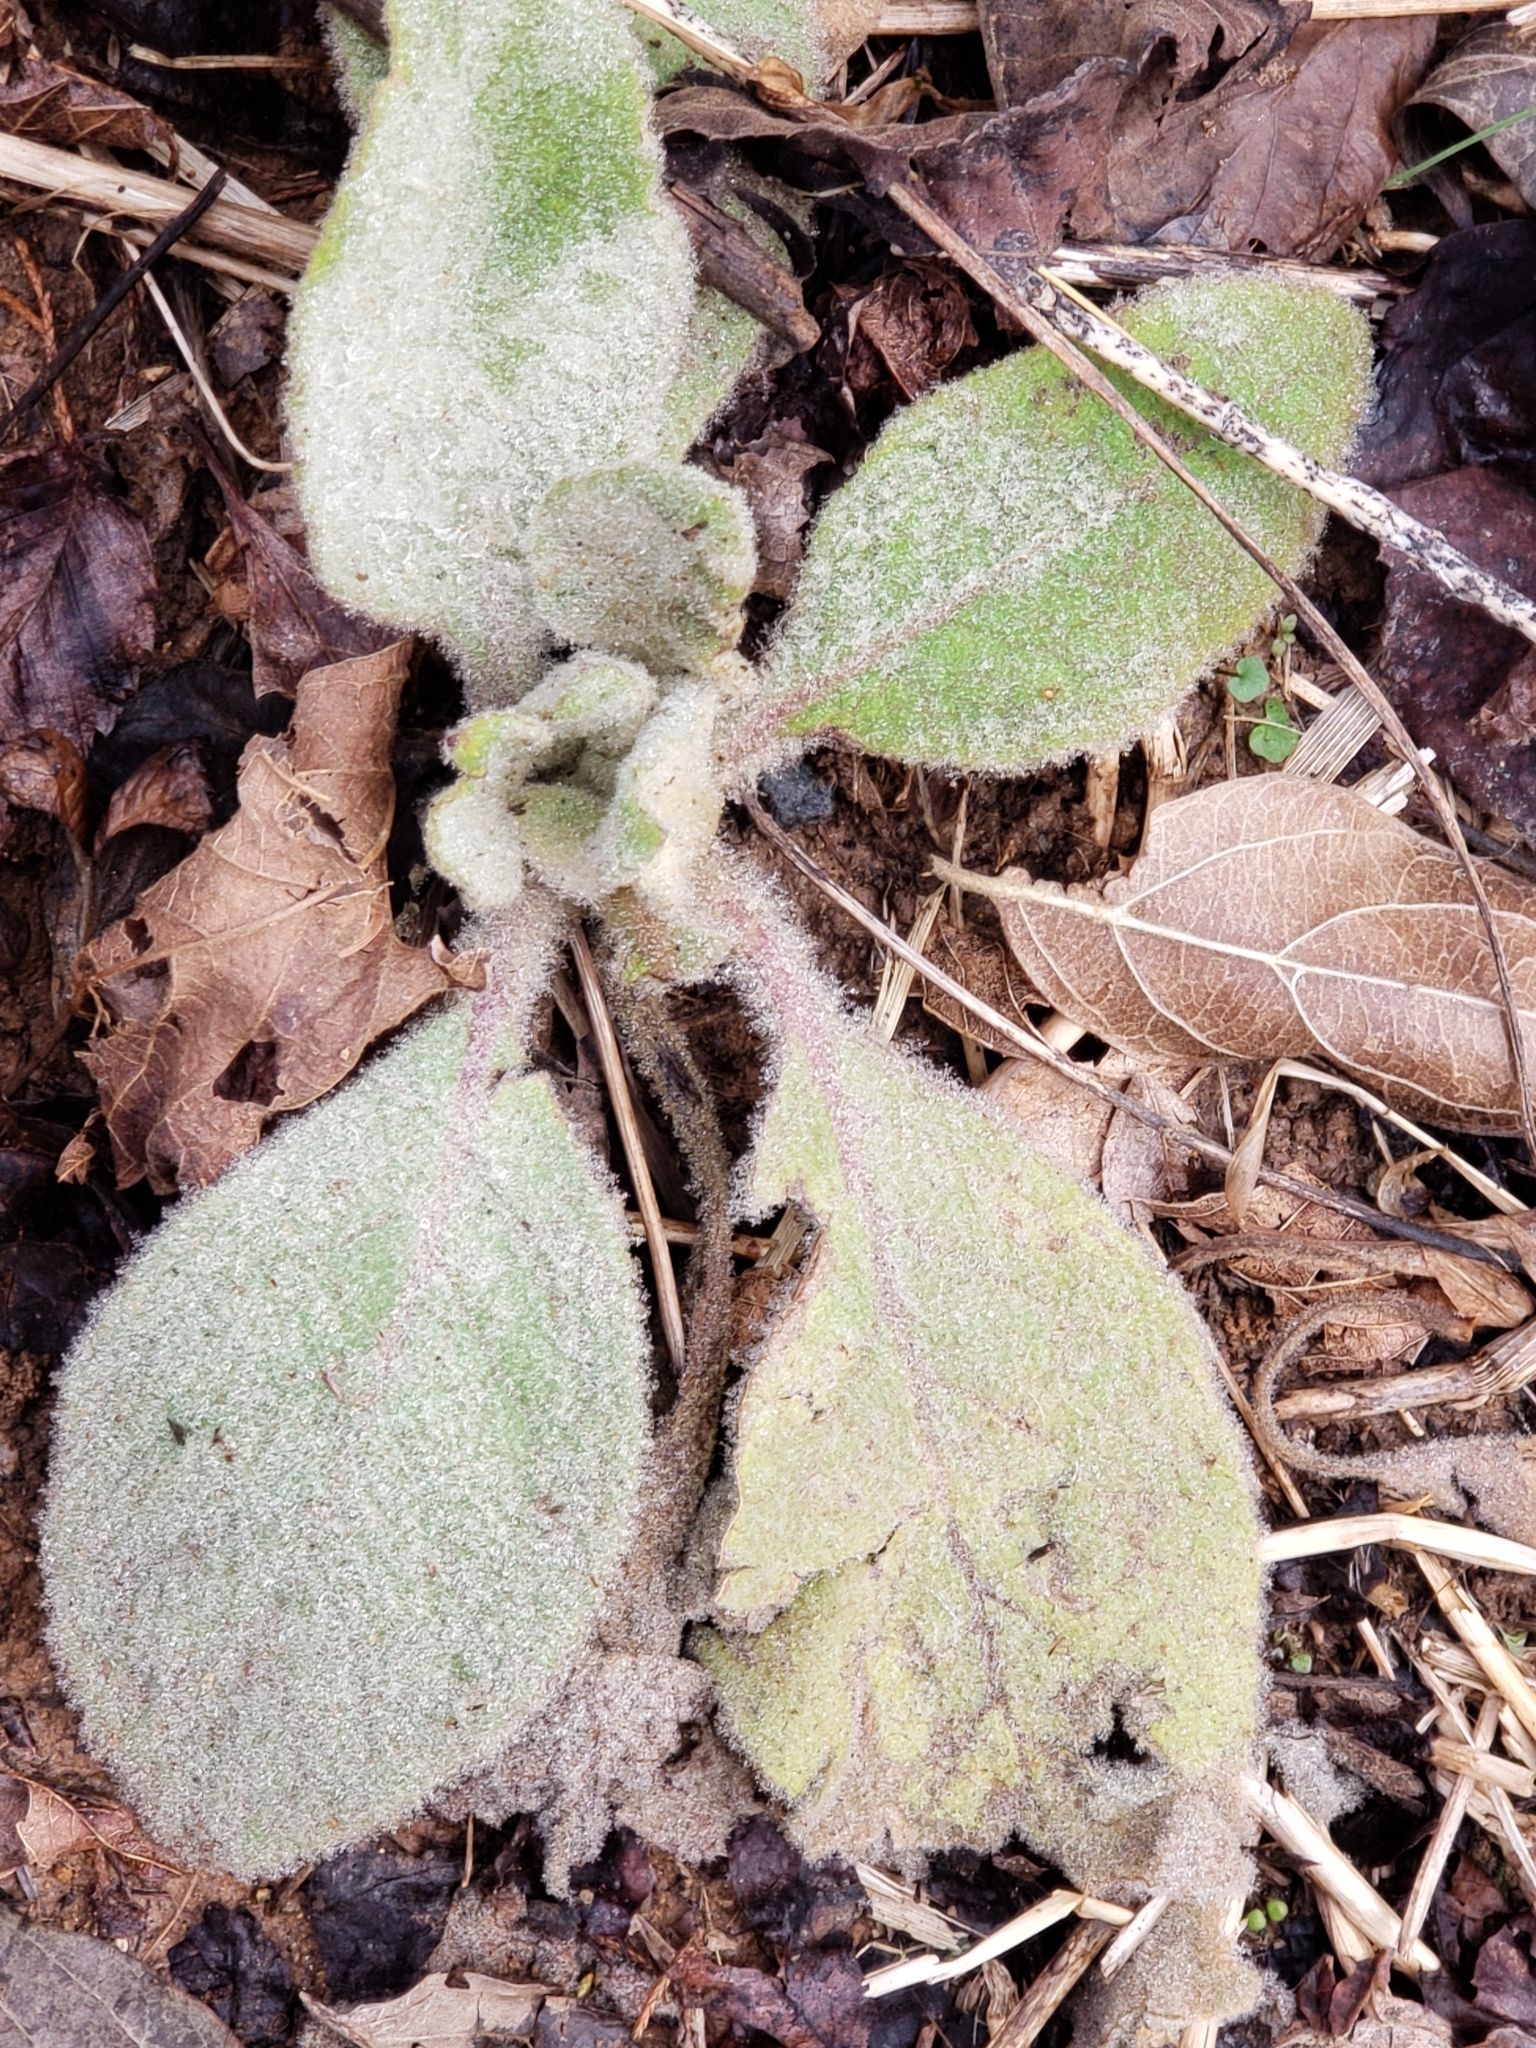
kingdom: Plantae
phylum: Tracheophyta
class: Magnoliopsida
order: Lamiales
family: Scrophulariaceae
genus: Verbascum
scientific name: Verbascum thapsus
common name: Common mullein
